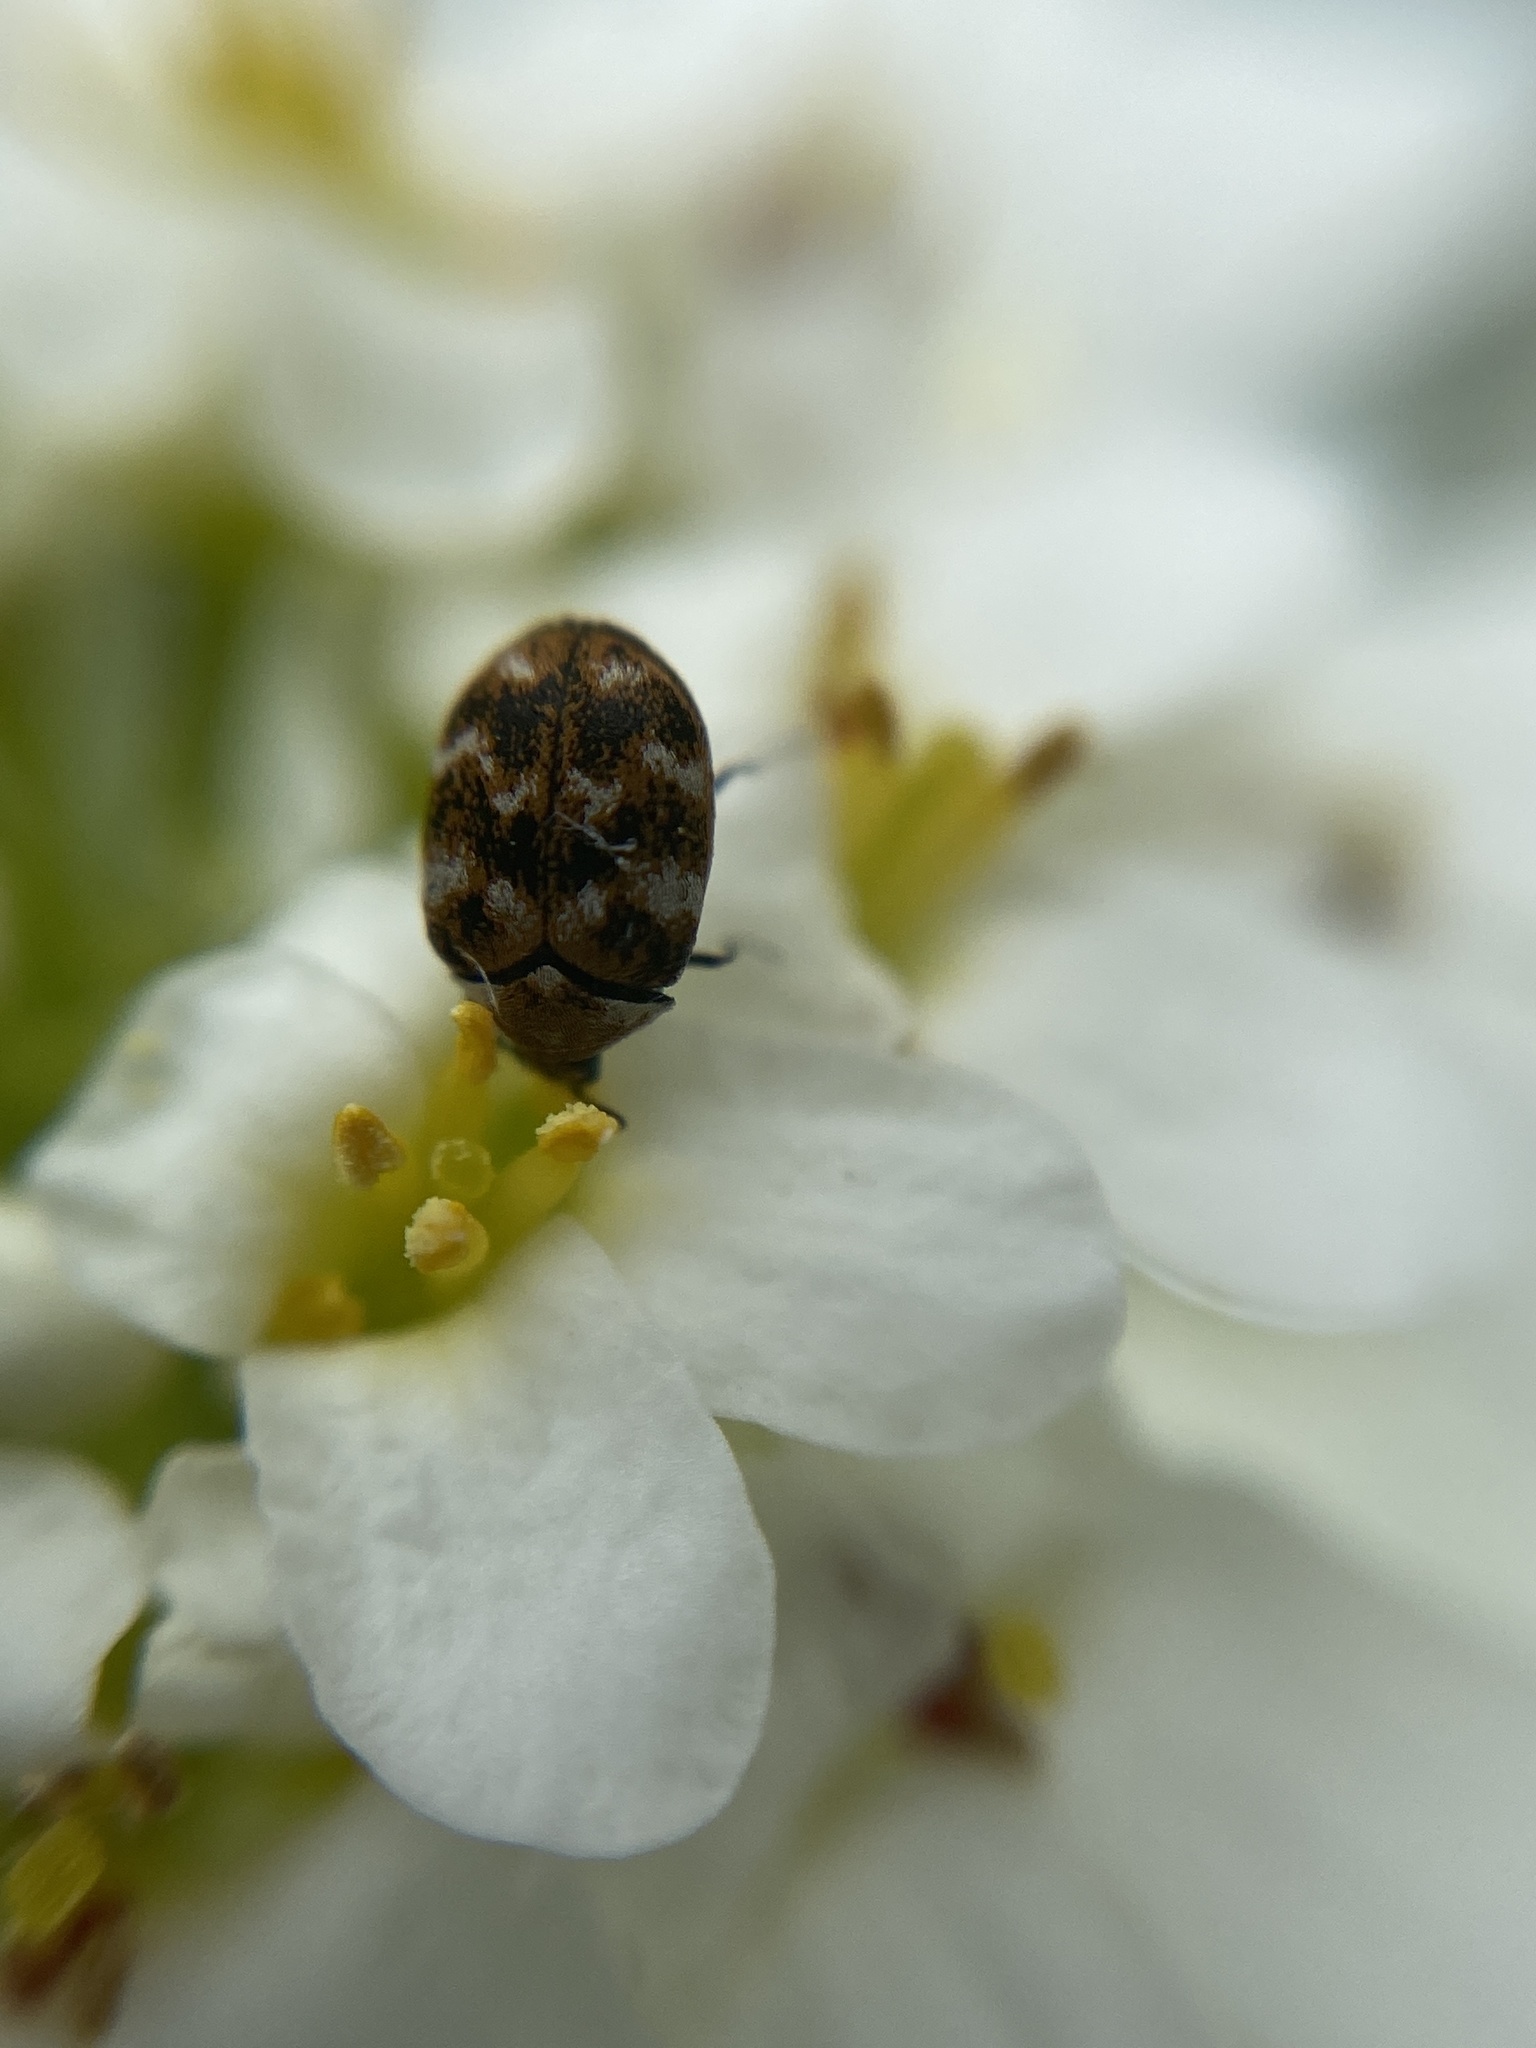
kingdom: Animalia
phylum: Arthropoda
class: Insecta
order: Coleoptera
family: Dermestidae
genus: Anthrenus
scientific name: Anthrenus verbasci
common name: Varied carpet beetle
